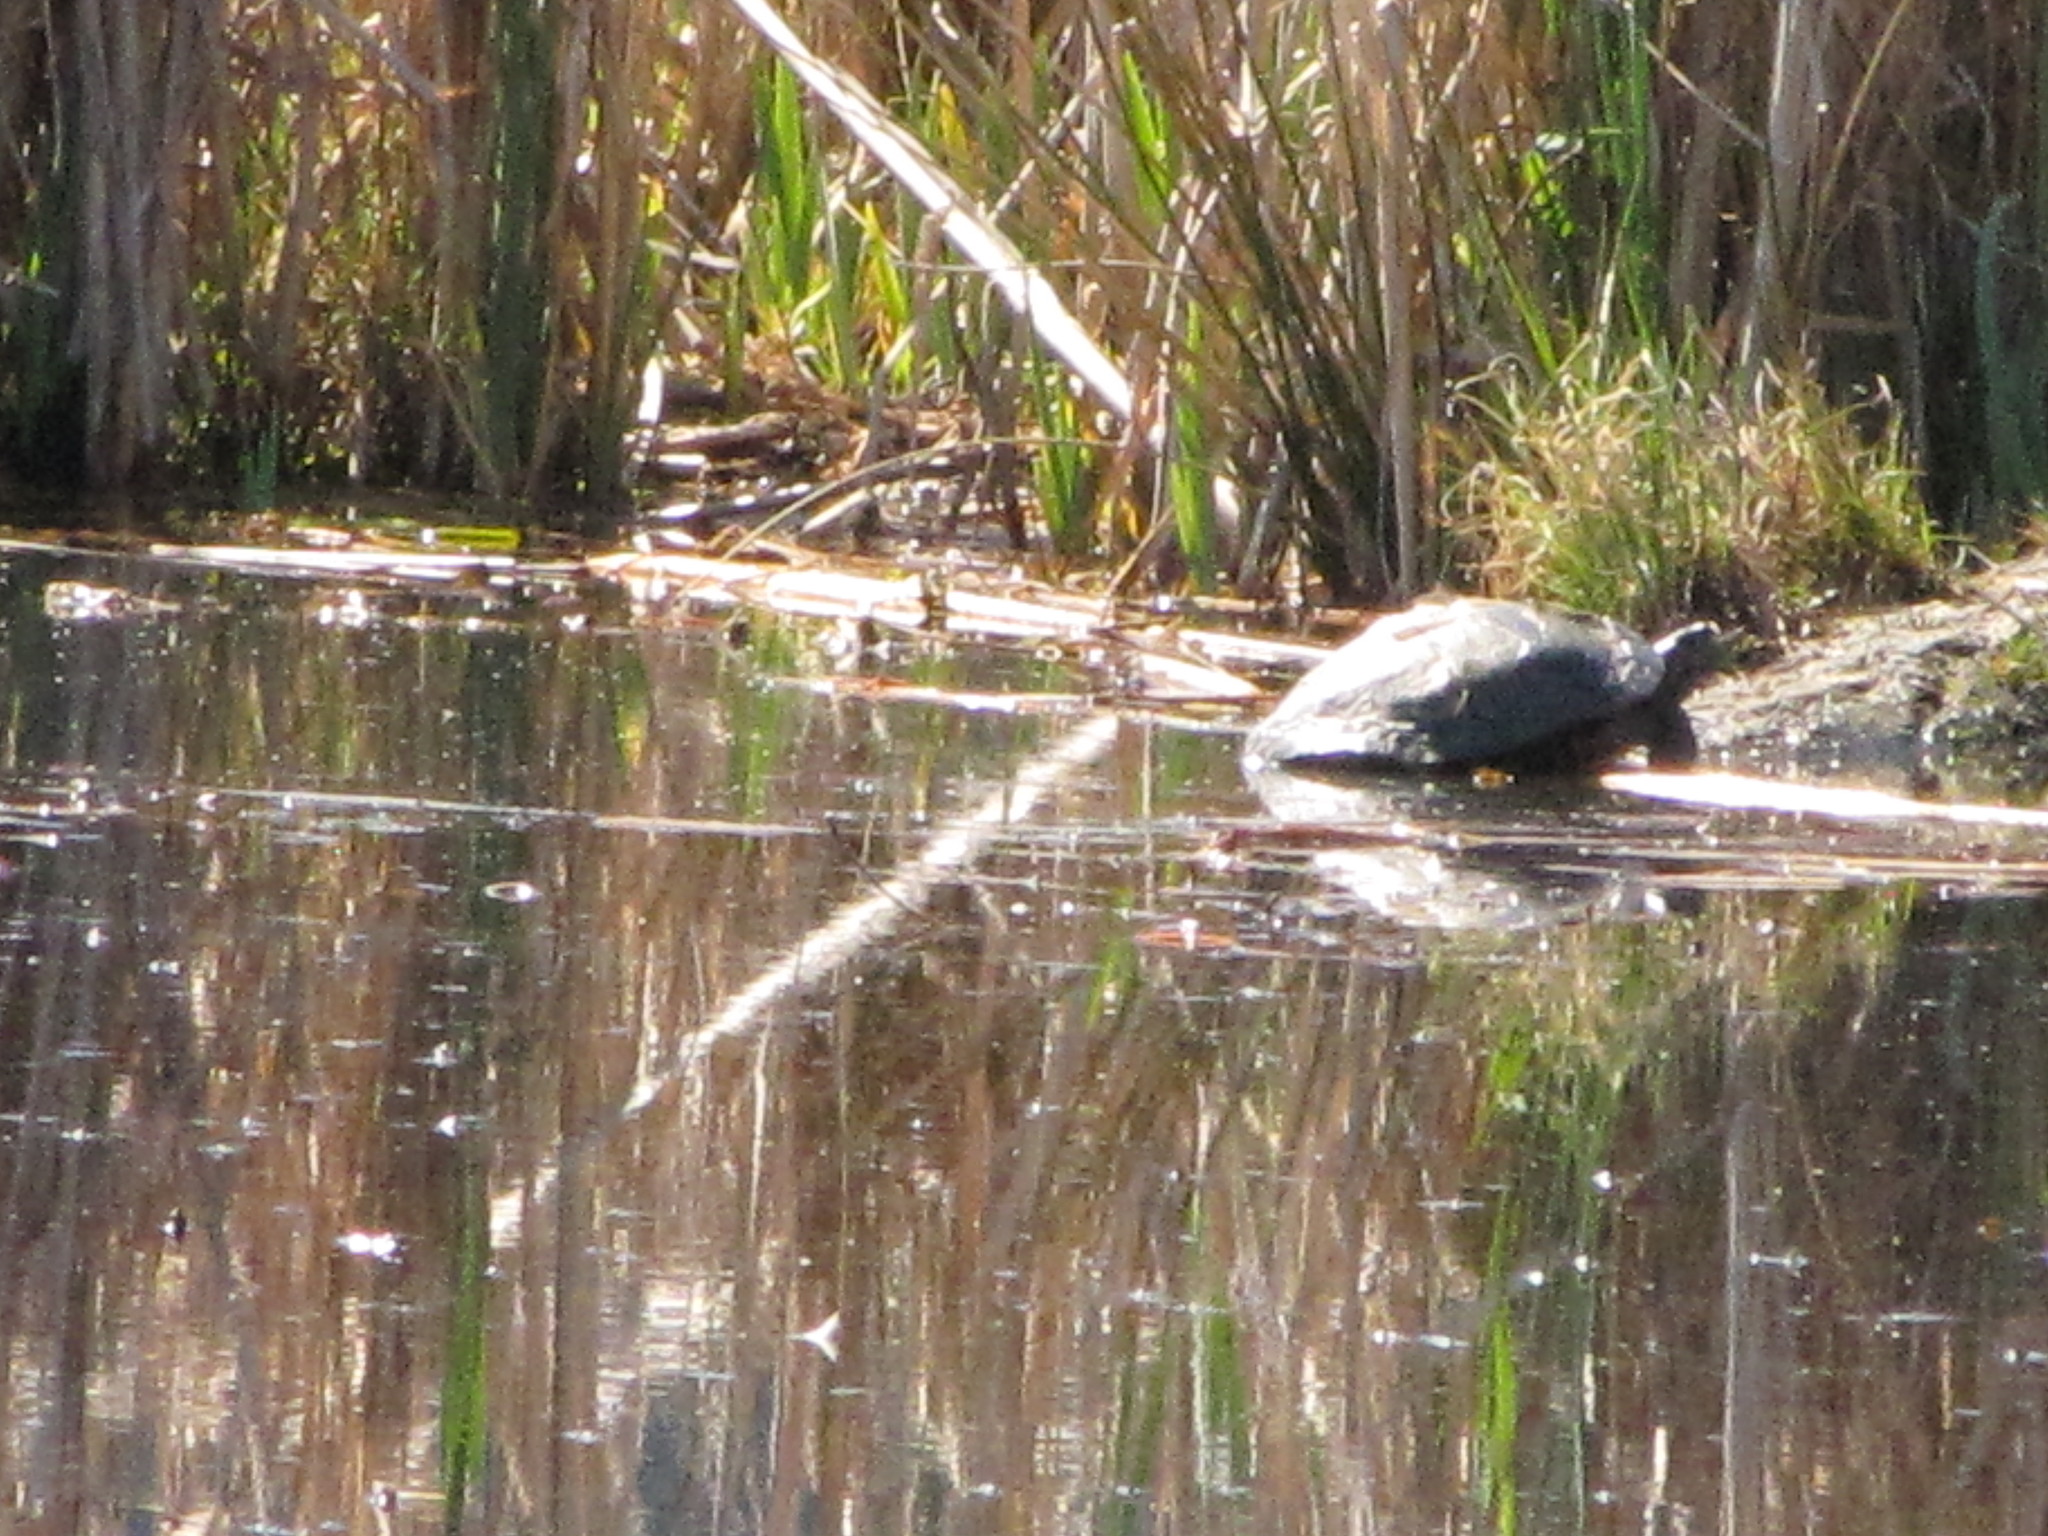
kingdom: Animalia
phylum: Chordata
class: Testudines
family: Emydidae
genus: Trachemys
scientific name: Trachemys scripta
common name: Slider
